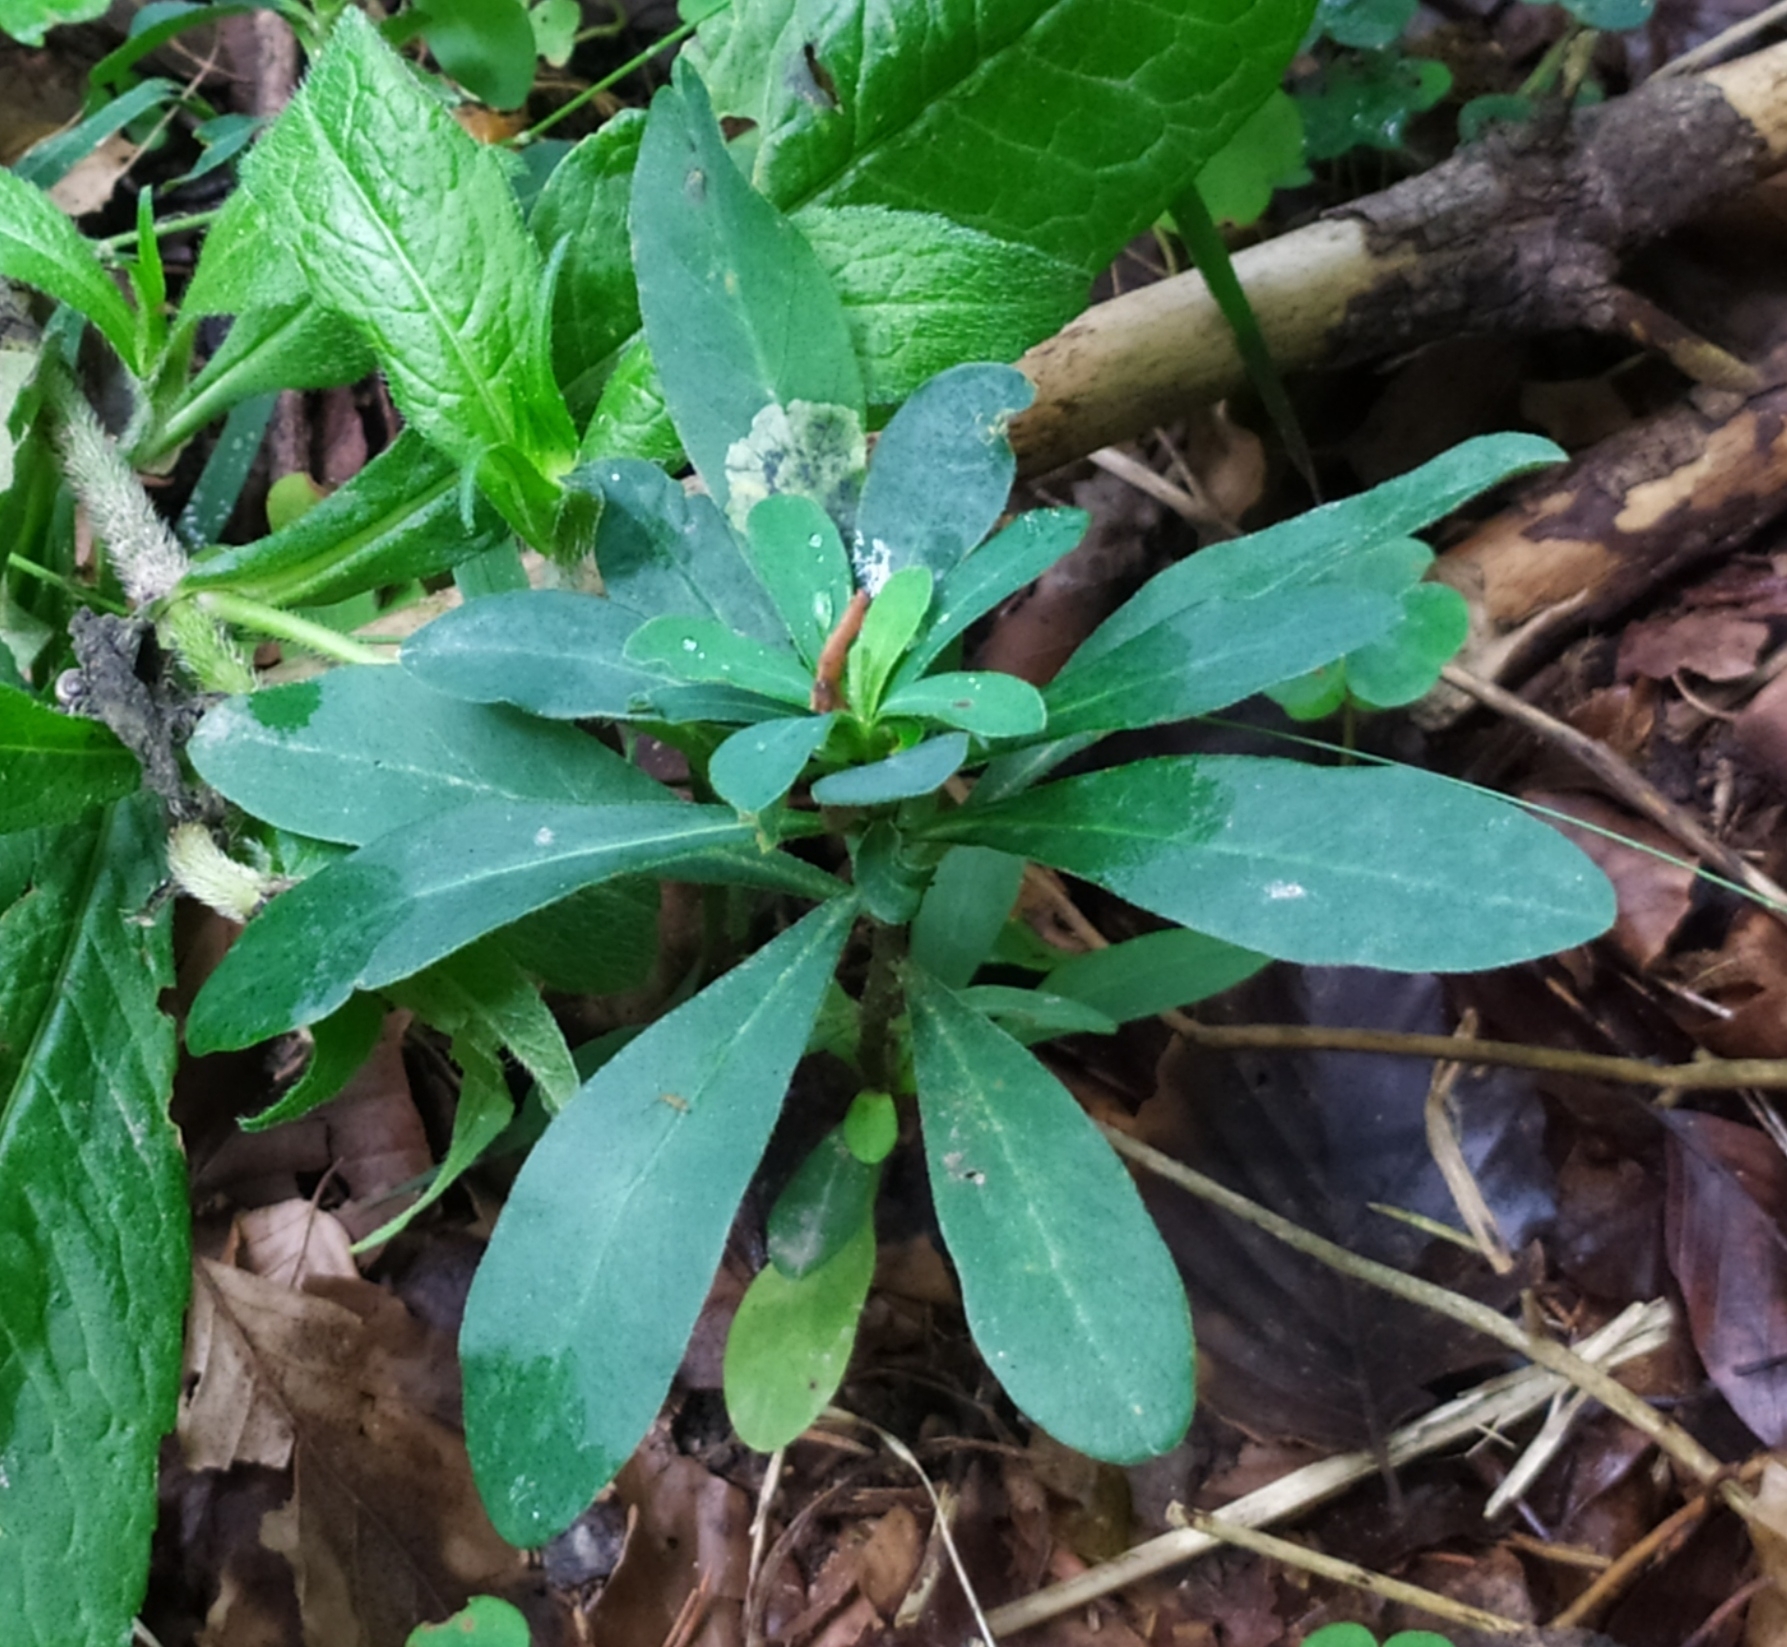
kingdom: Plantae
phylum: Tracheophyta
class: Magnoliopsida
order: Malpighiales
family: Euphorbiaceae
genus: Euphorbia
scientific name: Euphorbia amygdaloides
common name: Wood spurge
